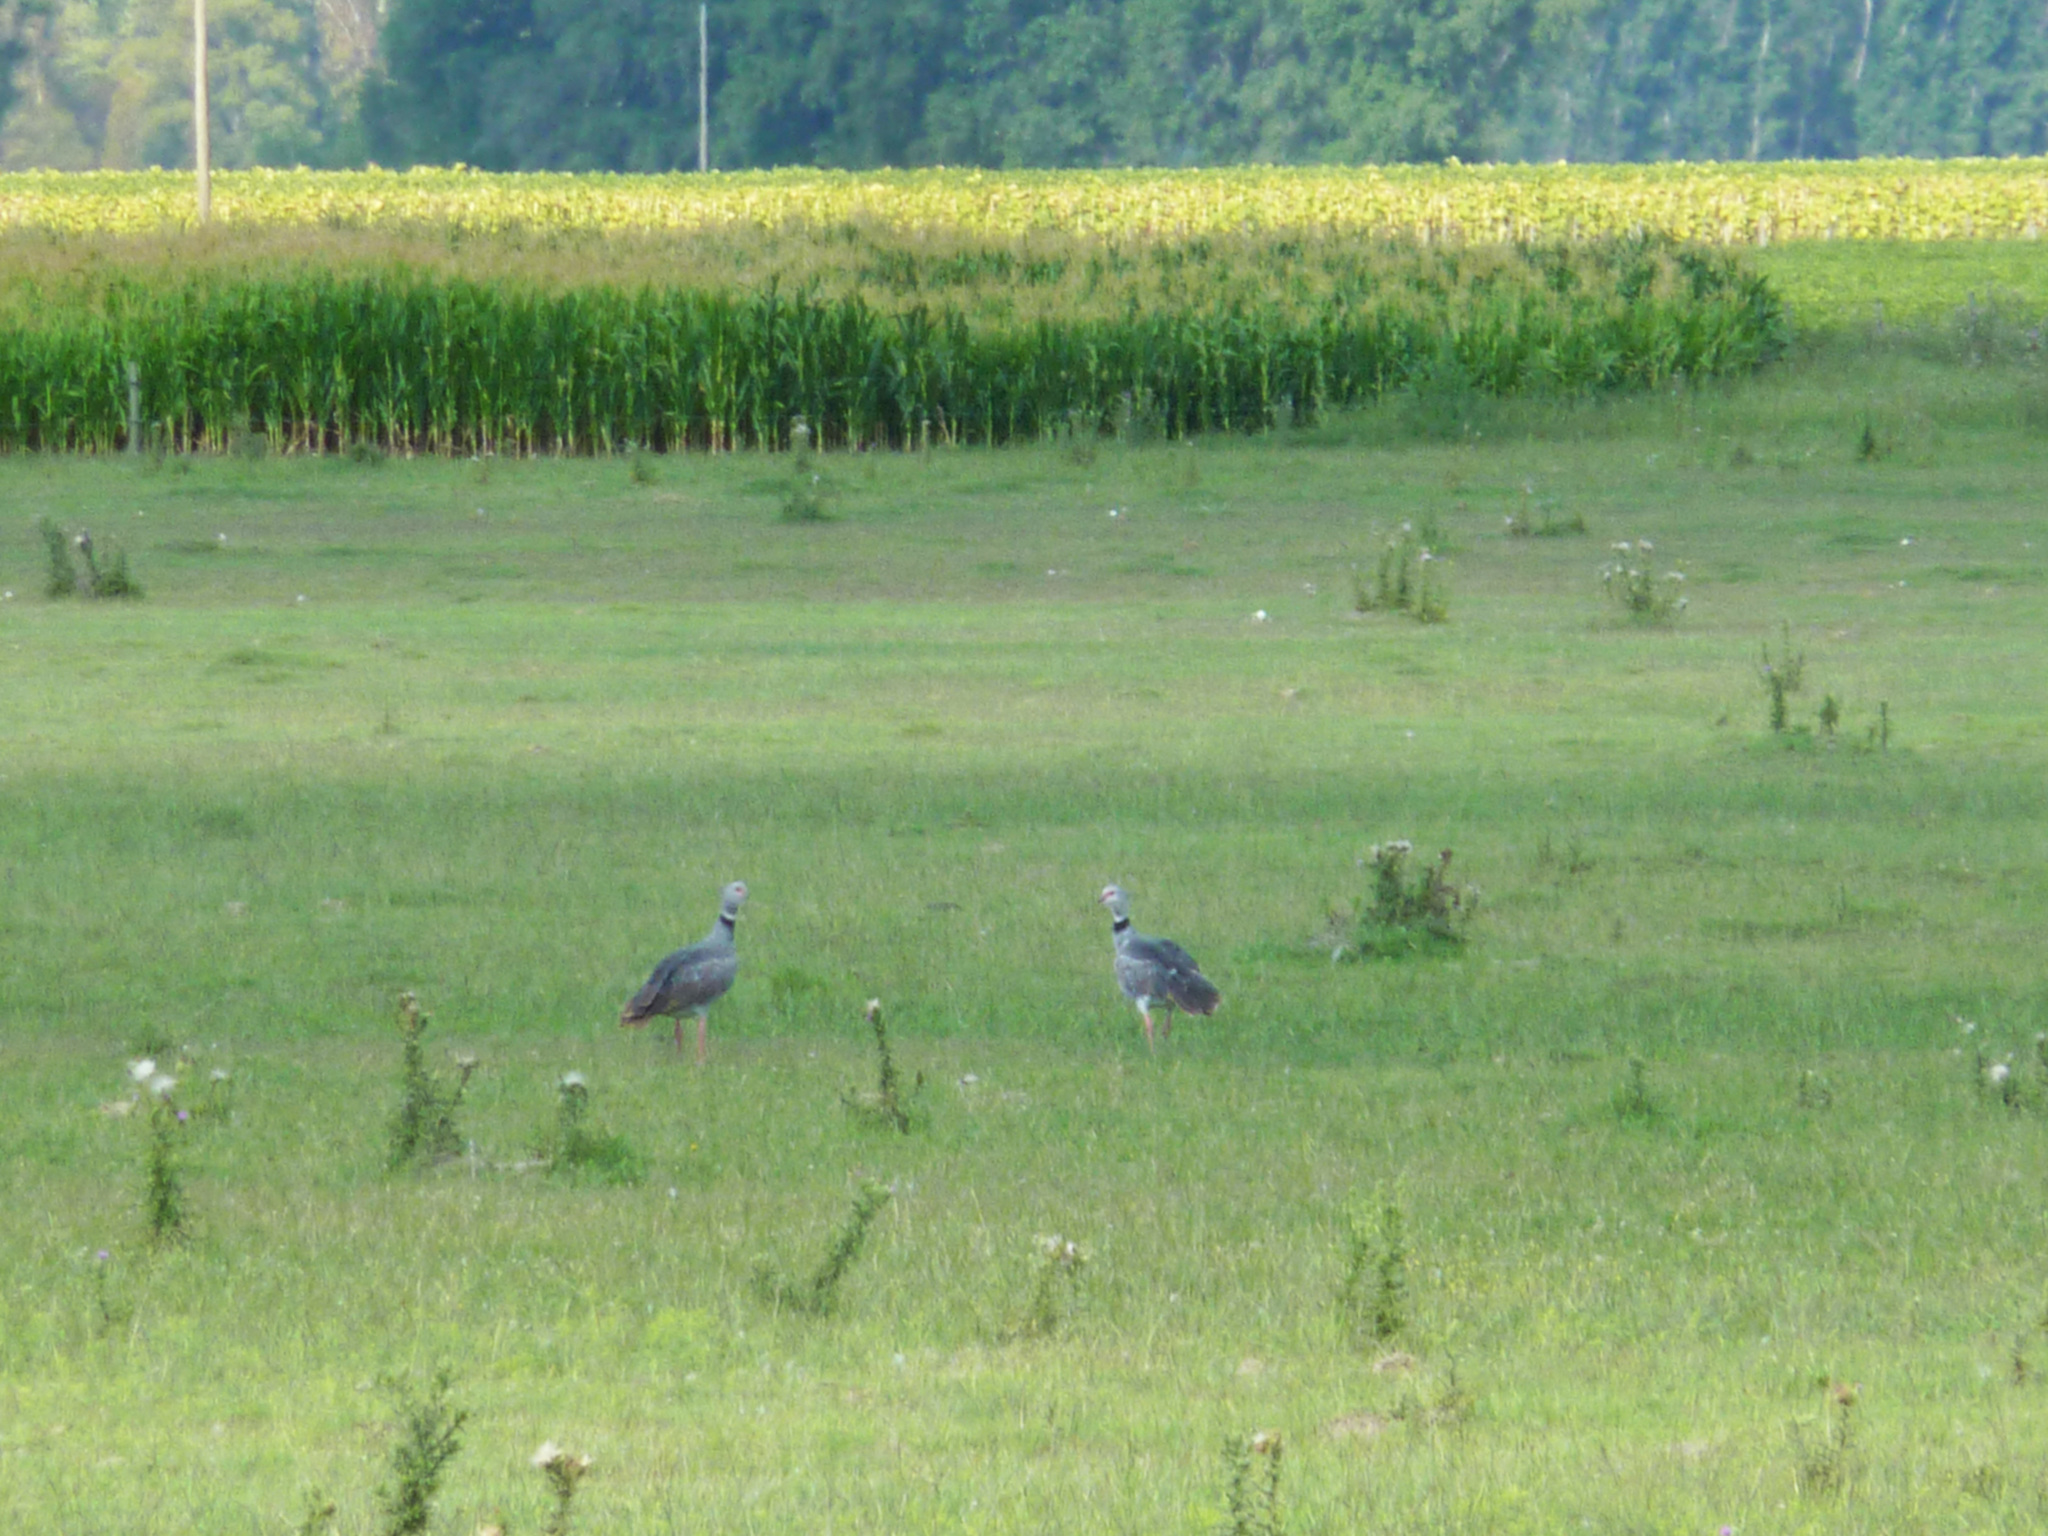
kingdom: Animalia
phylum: Chordata
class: Aves
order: Anseriformes
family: Anhimidae
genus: Chauna
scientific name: Chauna torquata
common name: Southern screamer
